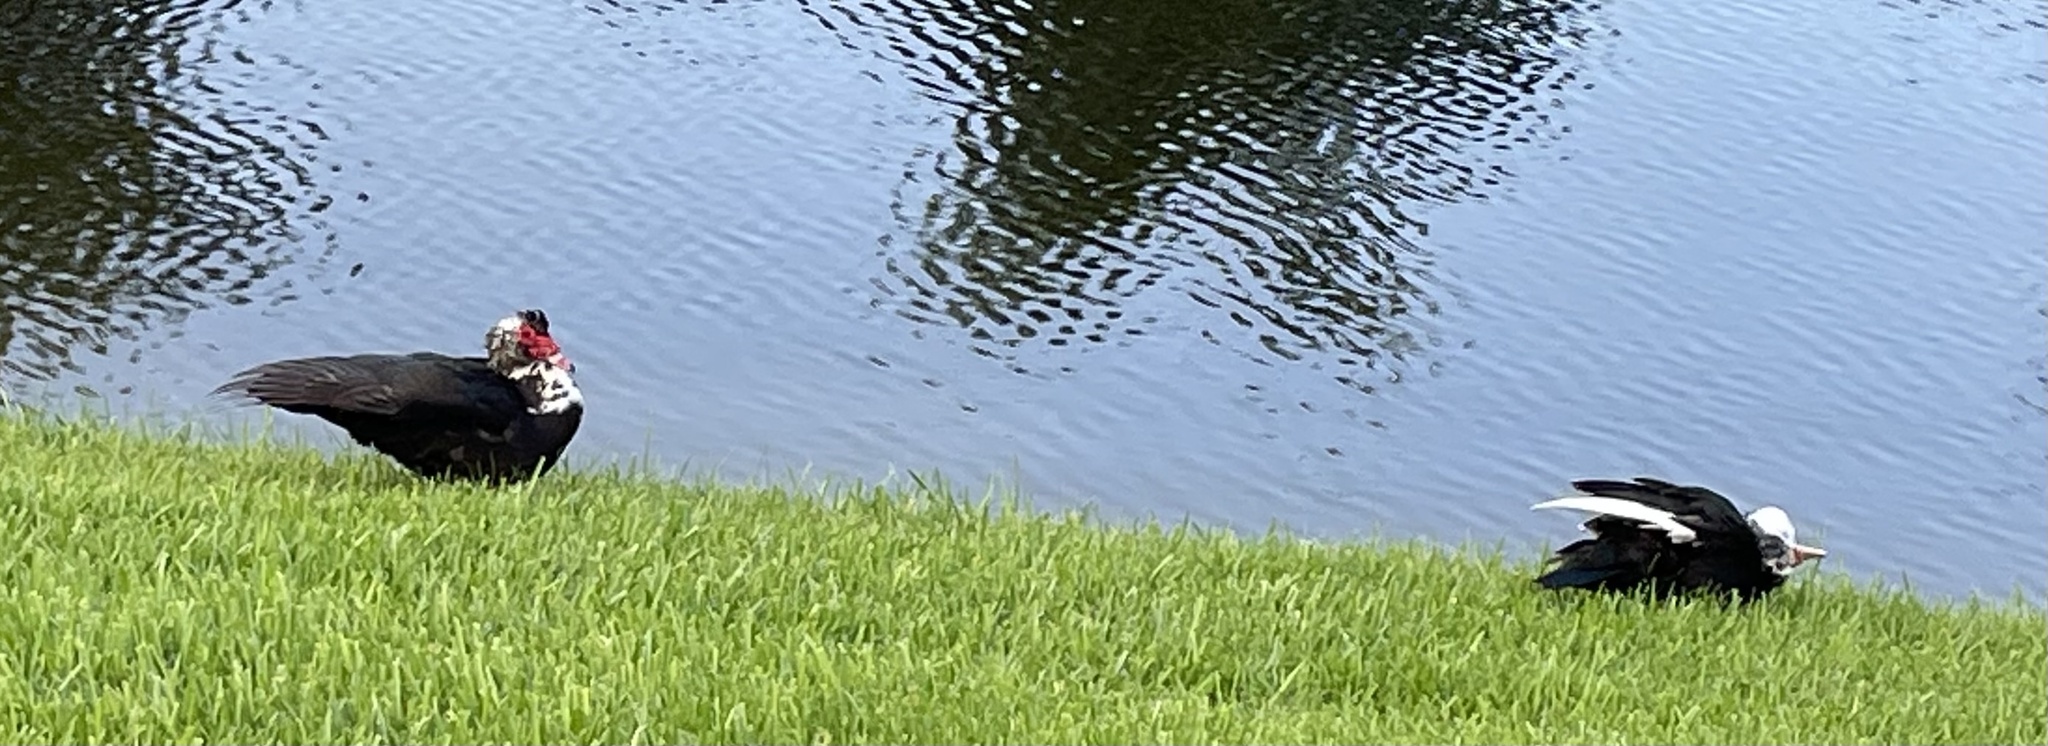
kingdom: Animalia
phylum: Chordata
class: Aves
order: Anseriformes
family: Anatidae
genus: Cairina
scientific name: Cairina moschata
